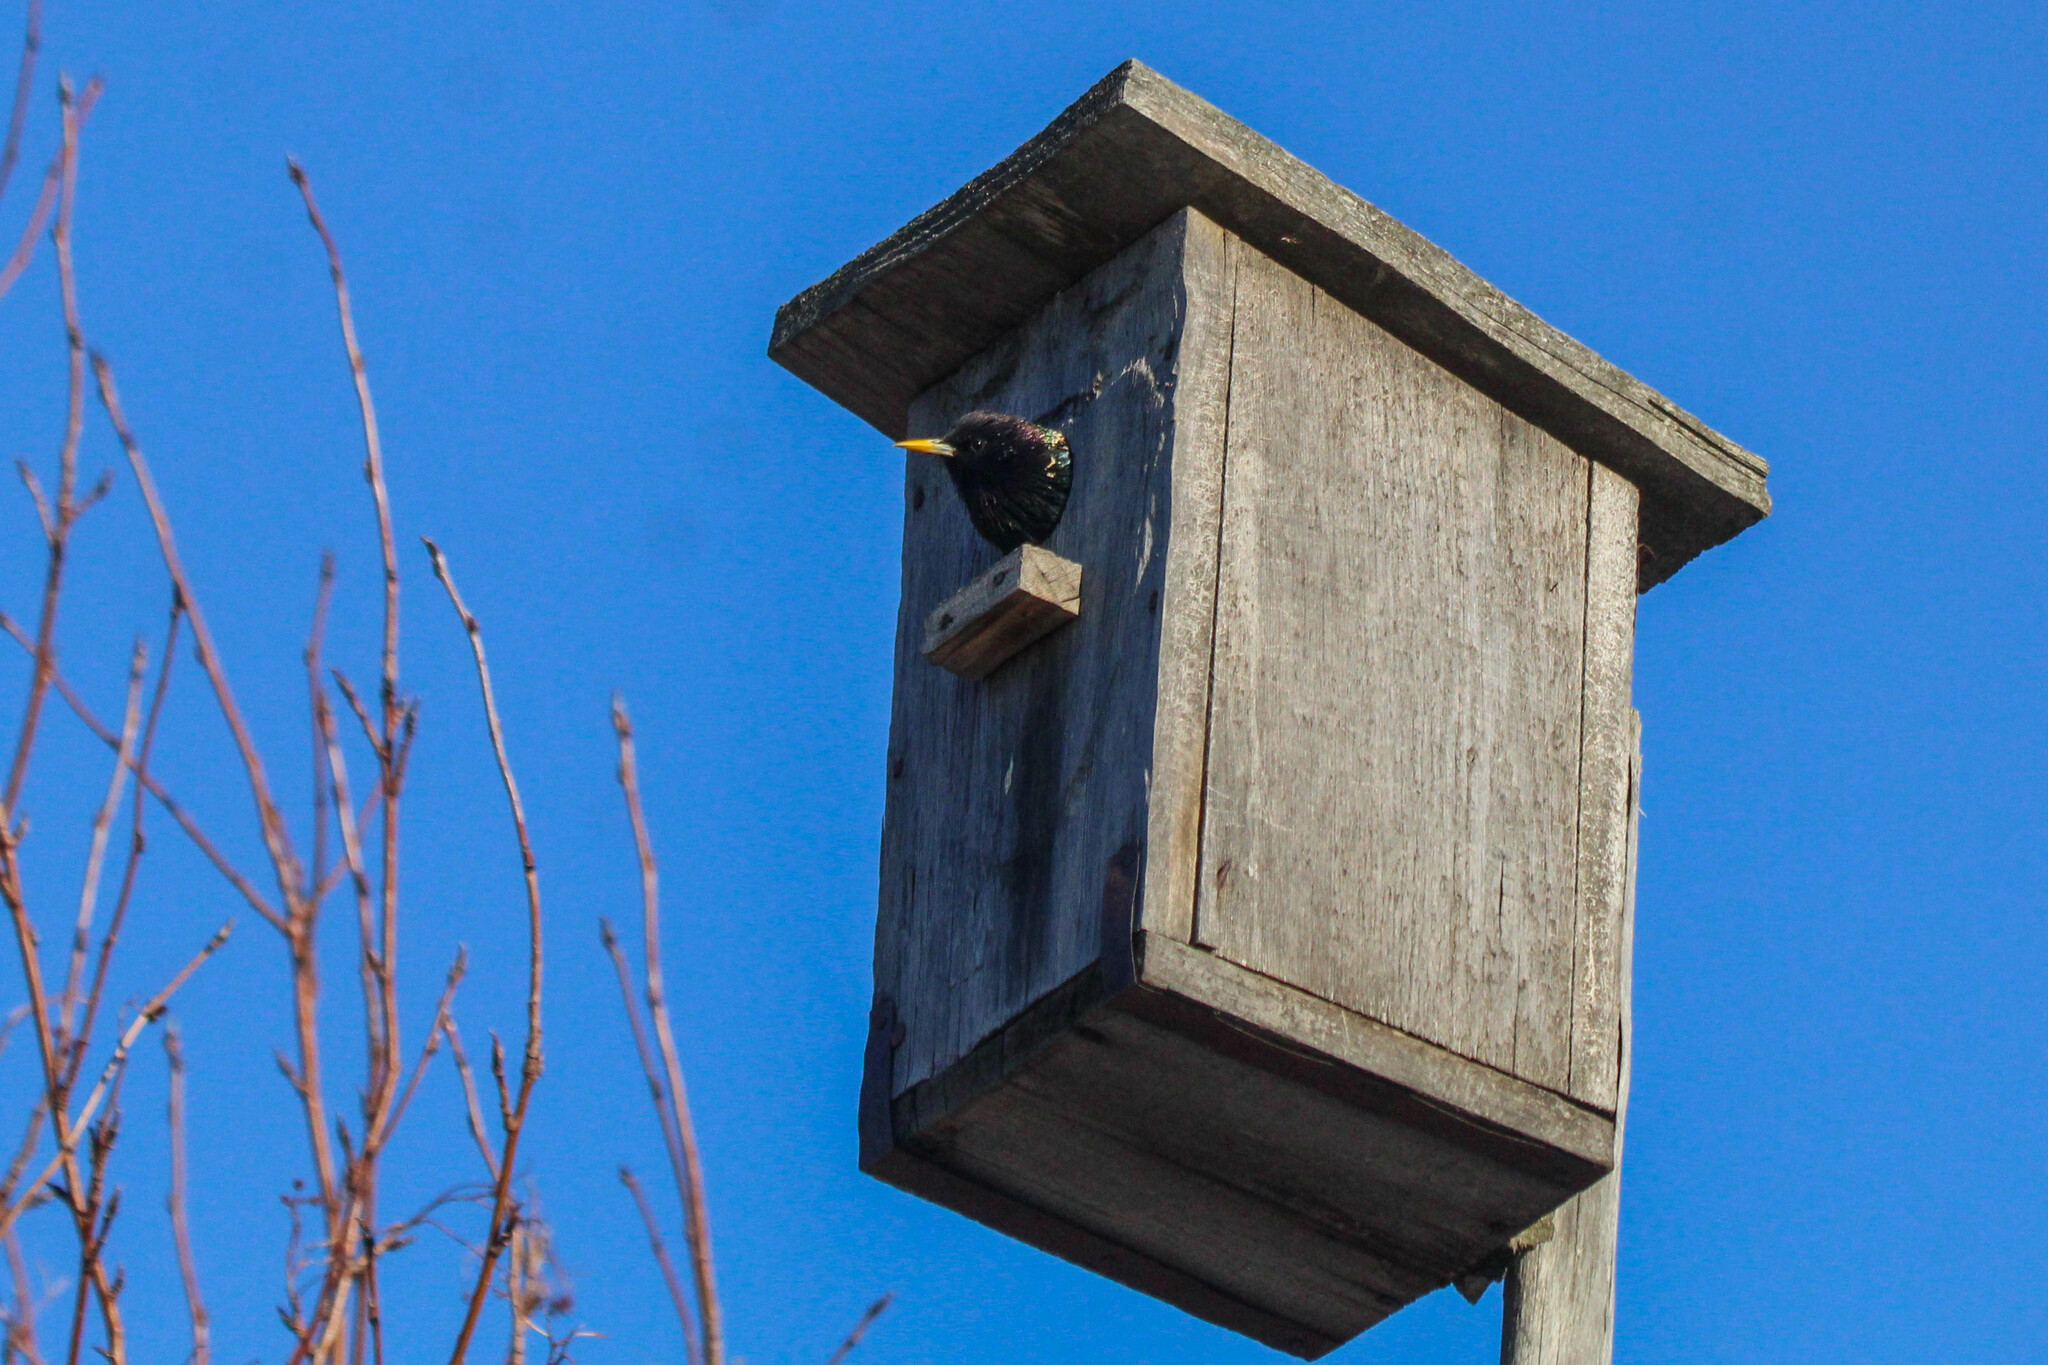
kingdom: Animalia
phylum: Chordata
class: Aves
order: Passeriformes
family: Sturnidae
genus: Sturnus
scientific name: Sturnus vulgaris
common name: Common starling
